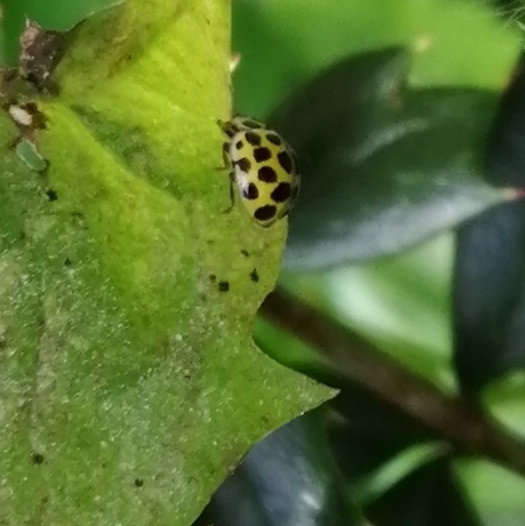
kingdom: Animalia
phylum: Arthropoda
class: Insecta
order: Coleoptera
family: Coccinellidae
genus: Psyllobora
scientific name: Psyllobora vigintiduopunctata
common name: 22-spot ladybird
